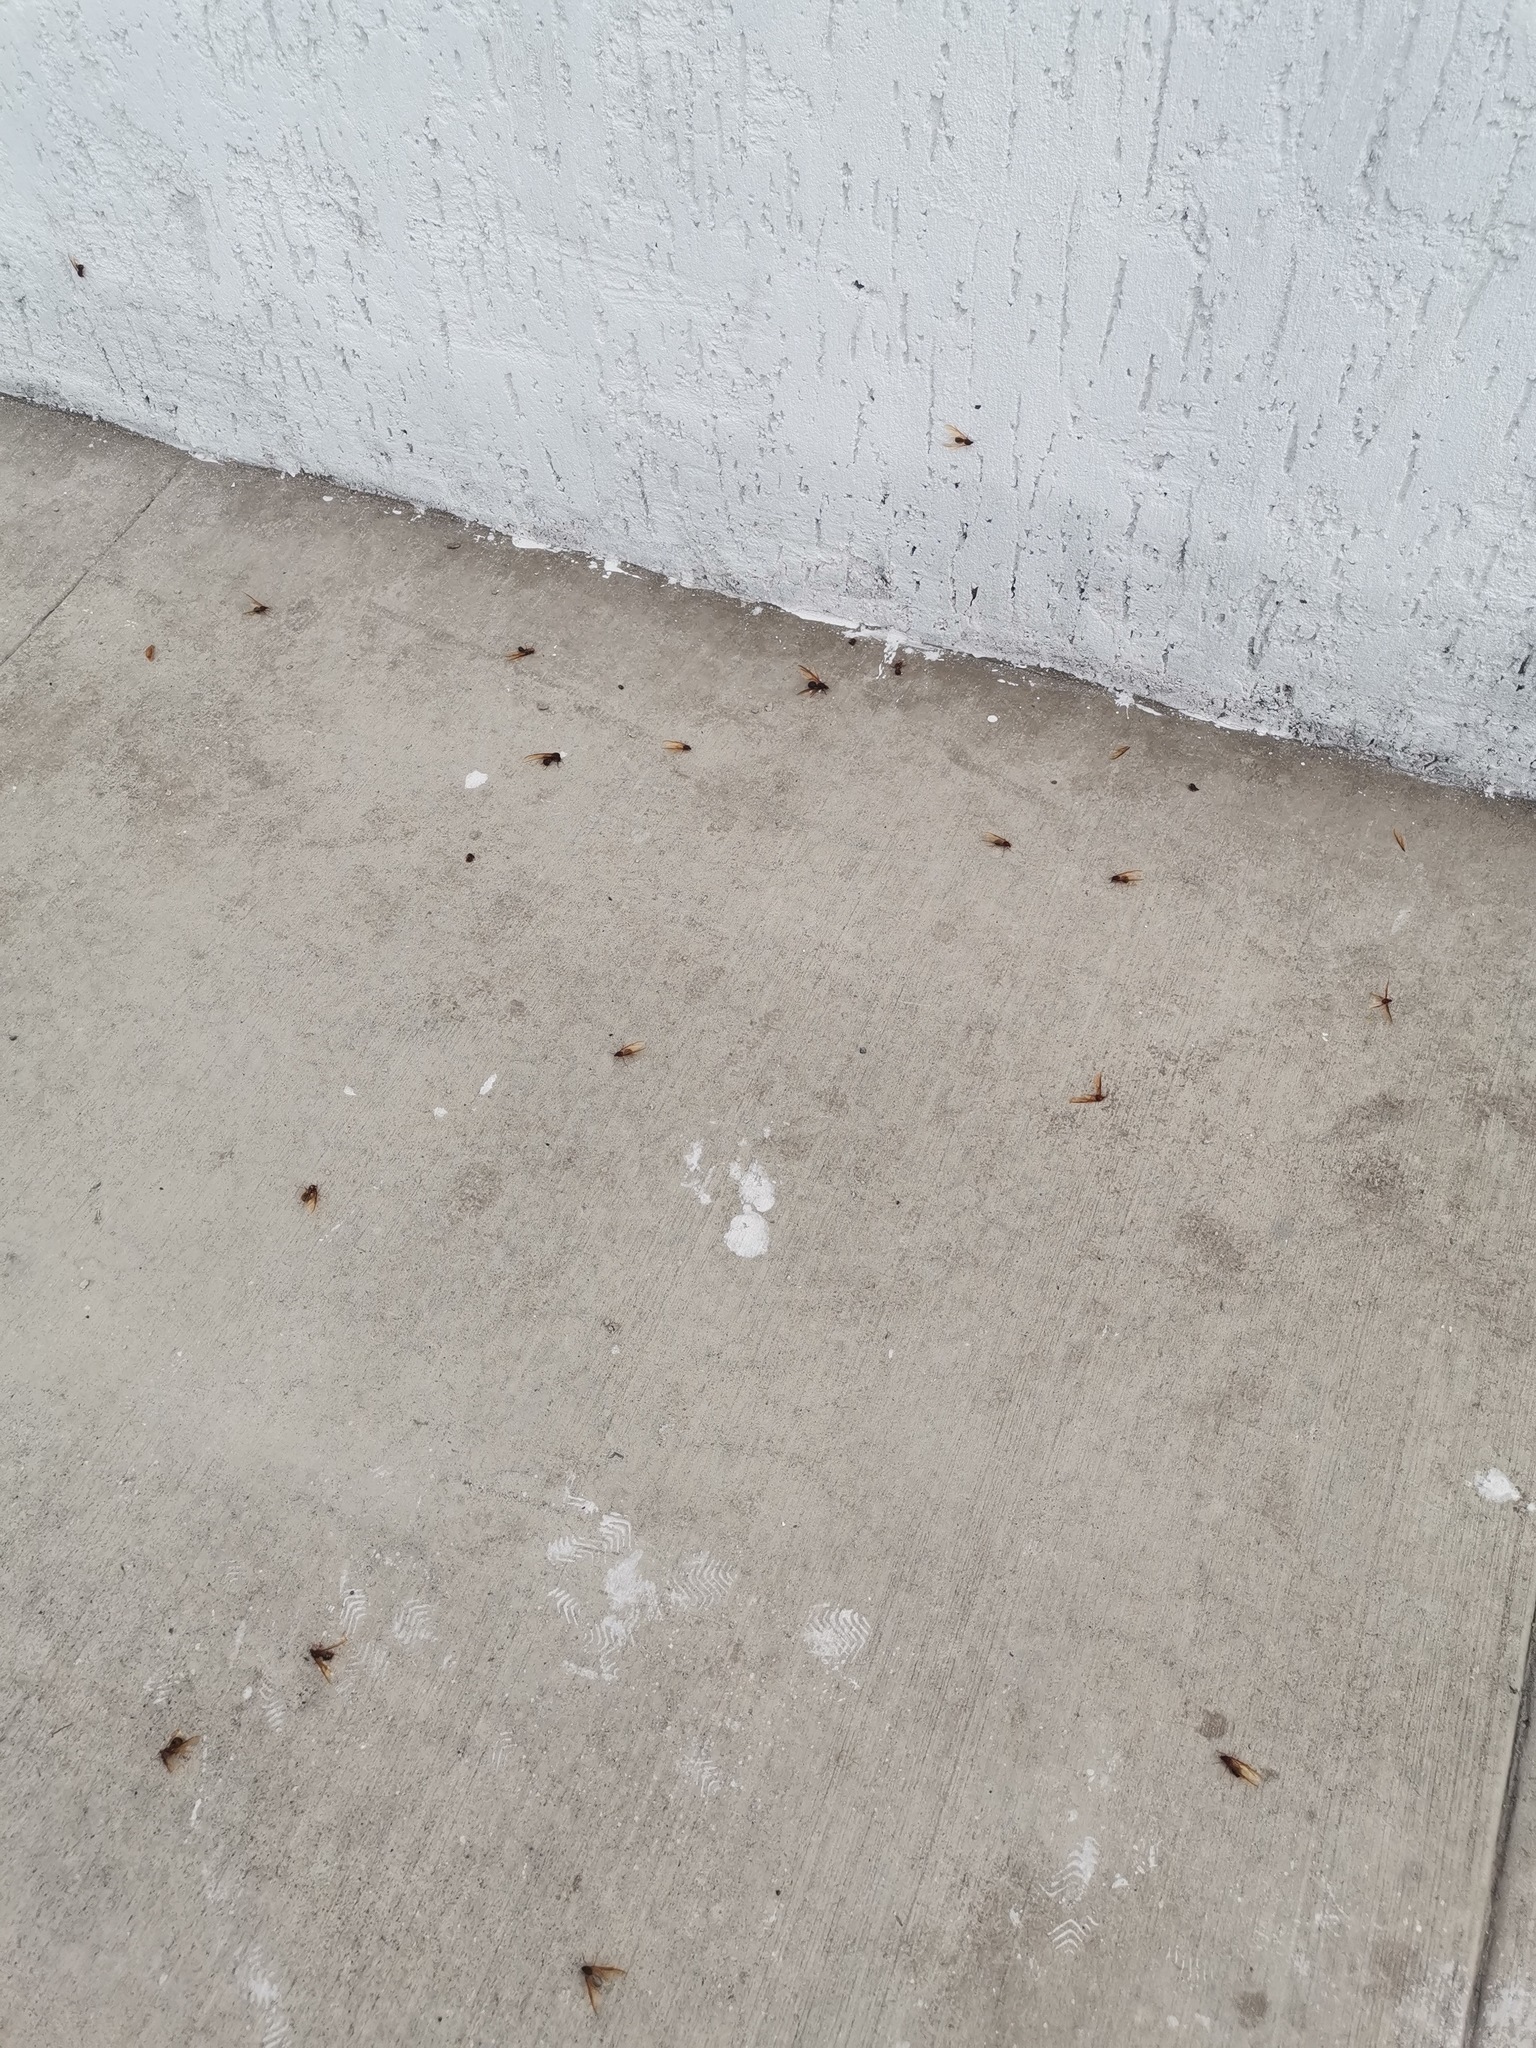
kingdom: Animalia
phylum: Arthropoda
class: Insecta
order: Hymenoptera
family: Formicidae
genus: Atta
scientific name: Atta mexicana
